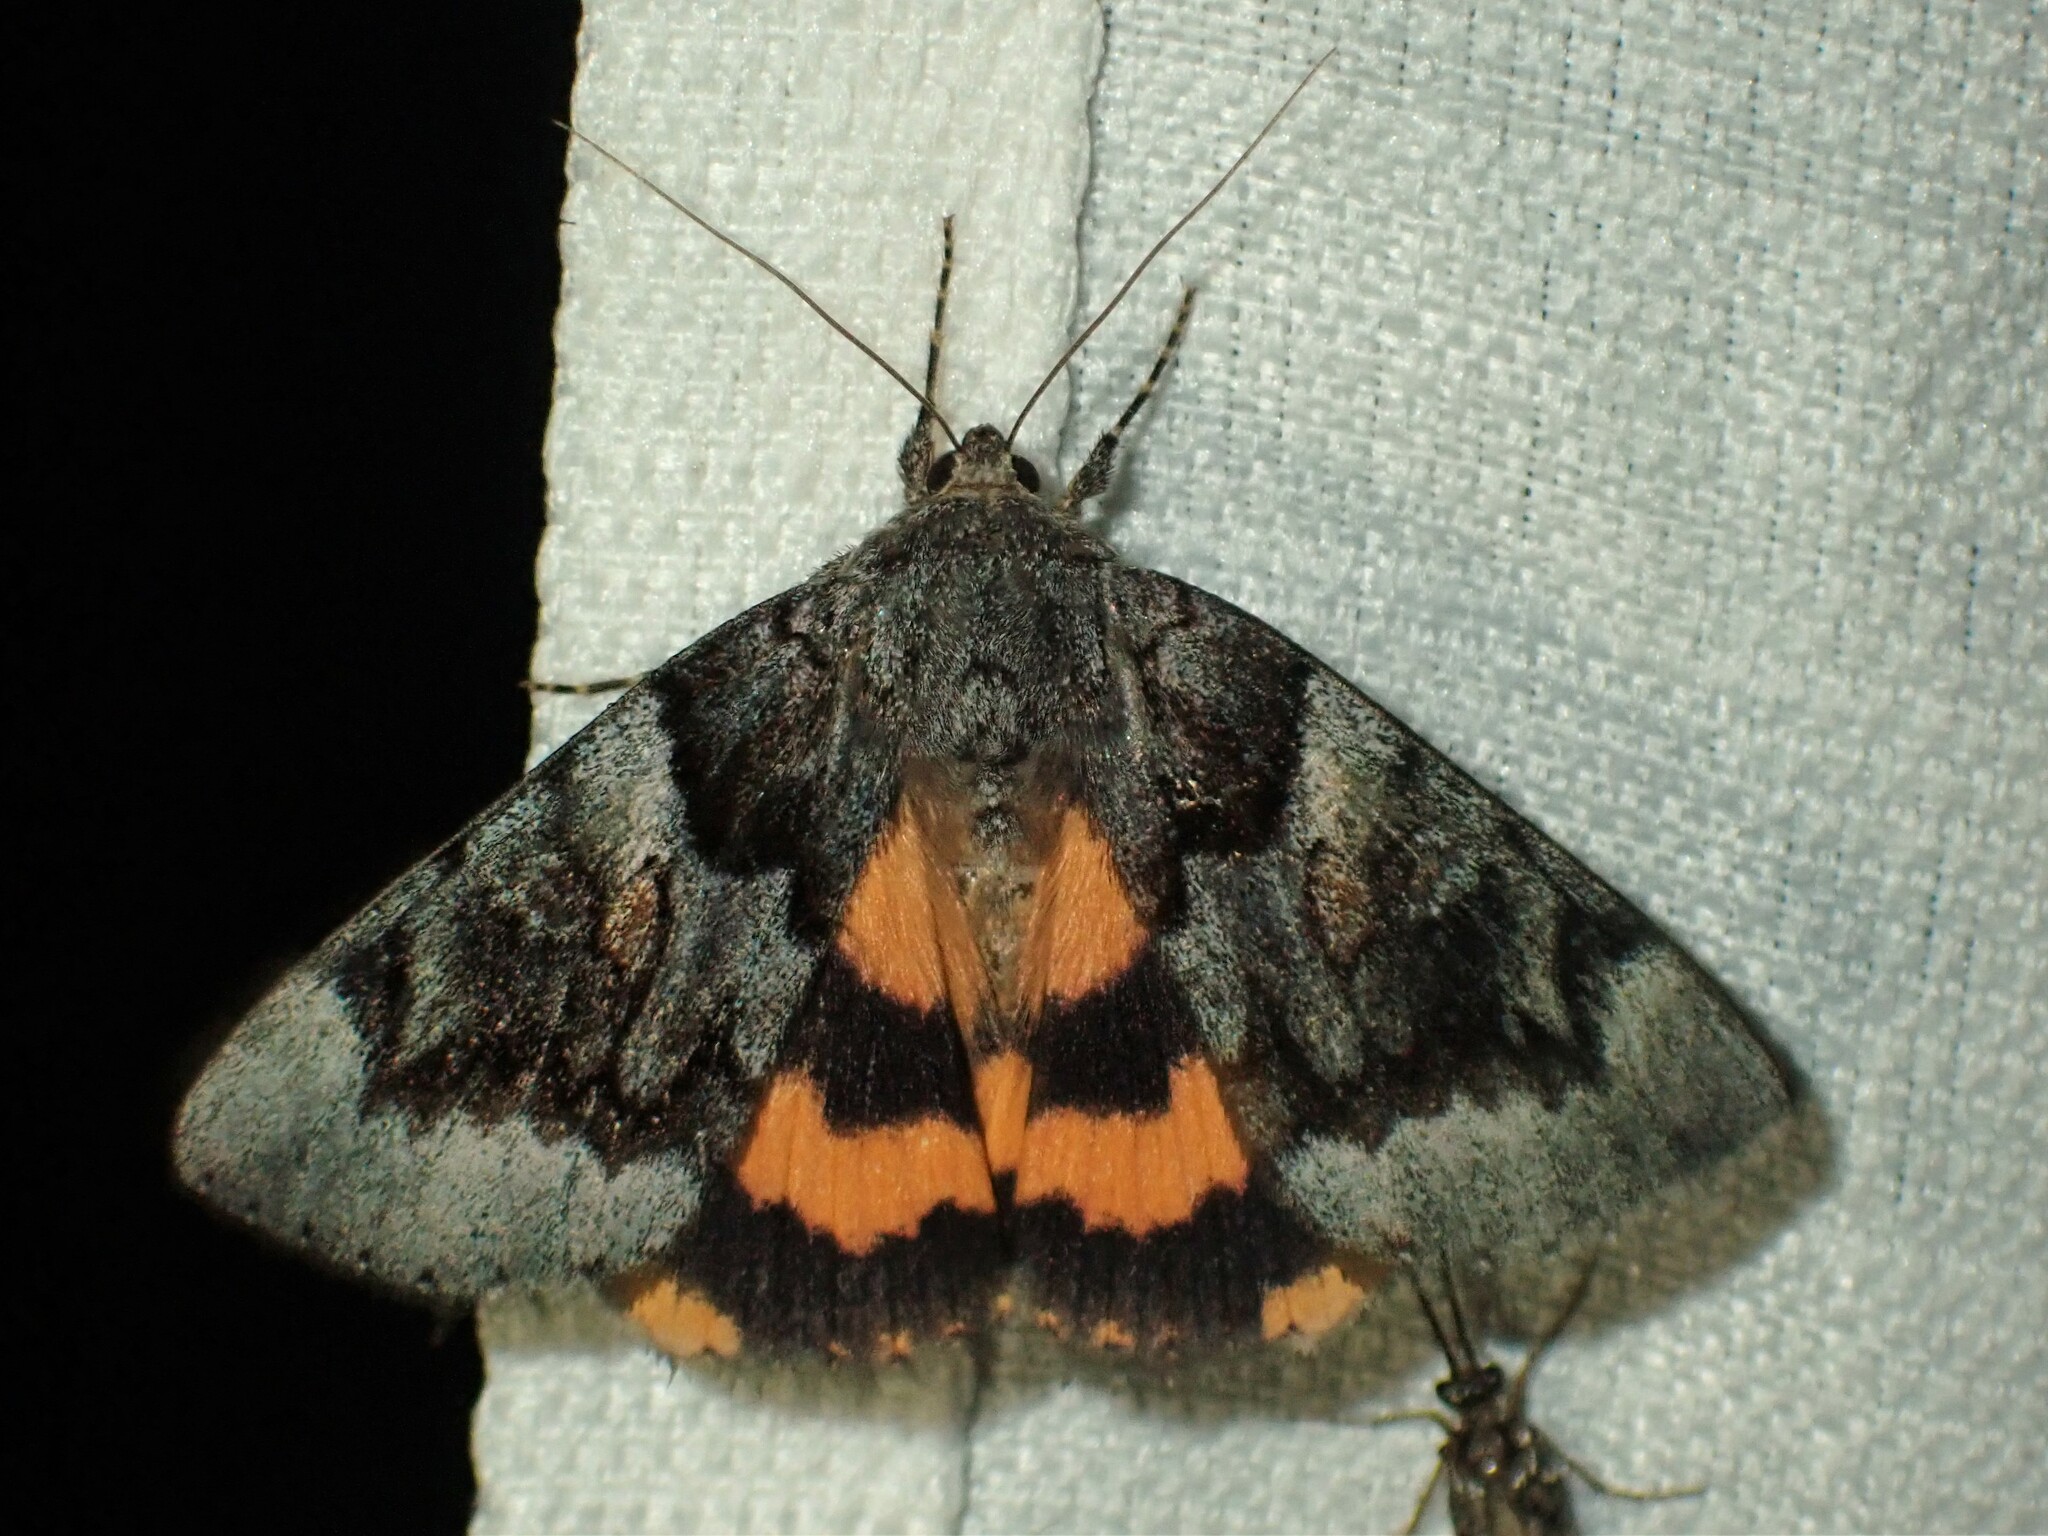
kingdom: Animalia
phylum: Arthropoda
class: Insecta
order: Lepidoptera
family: Erebidae
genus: Catocala
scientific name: Catocala badia
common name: Bay underwing
